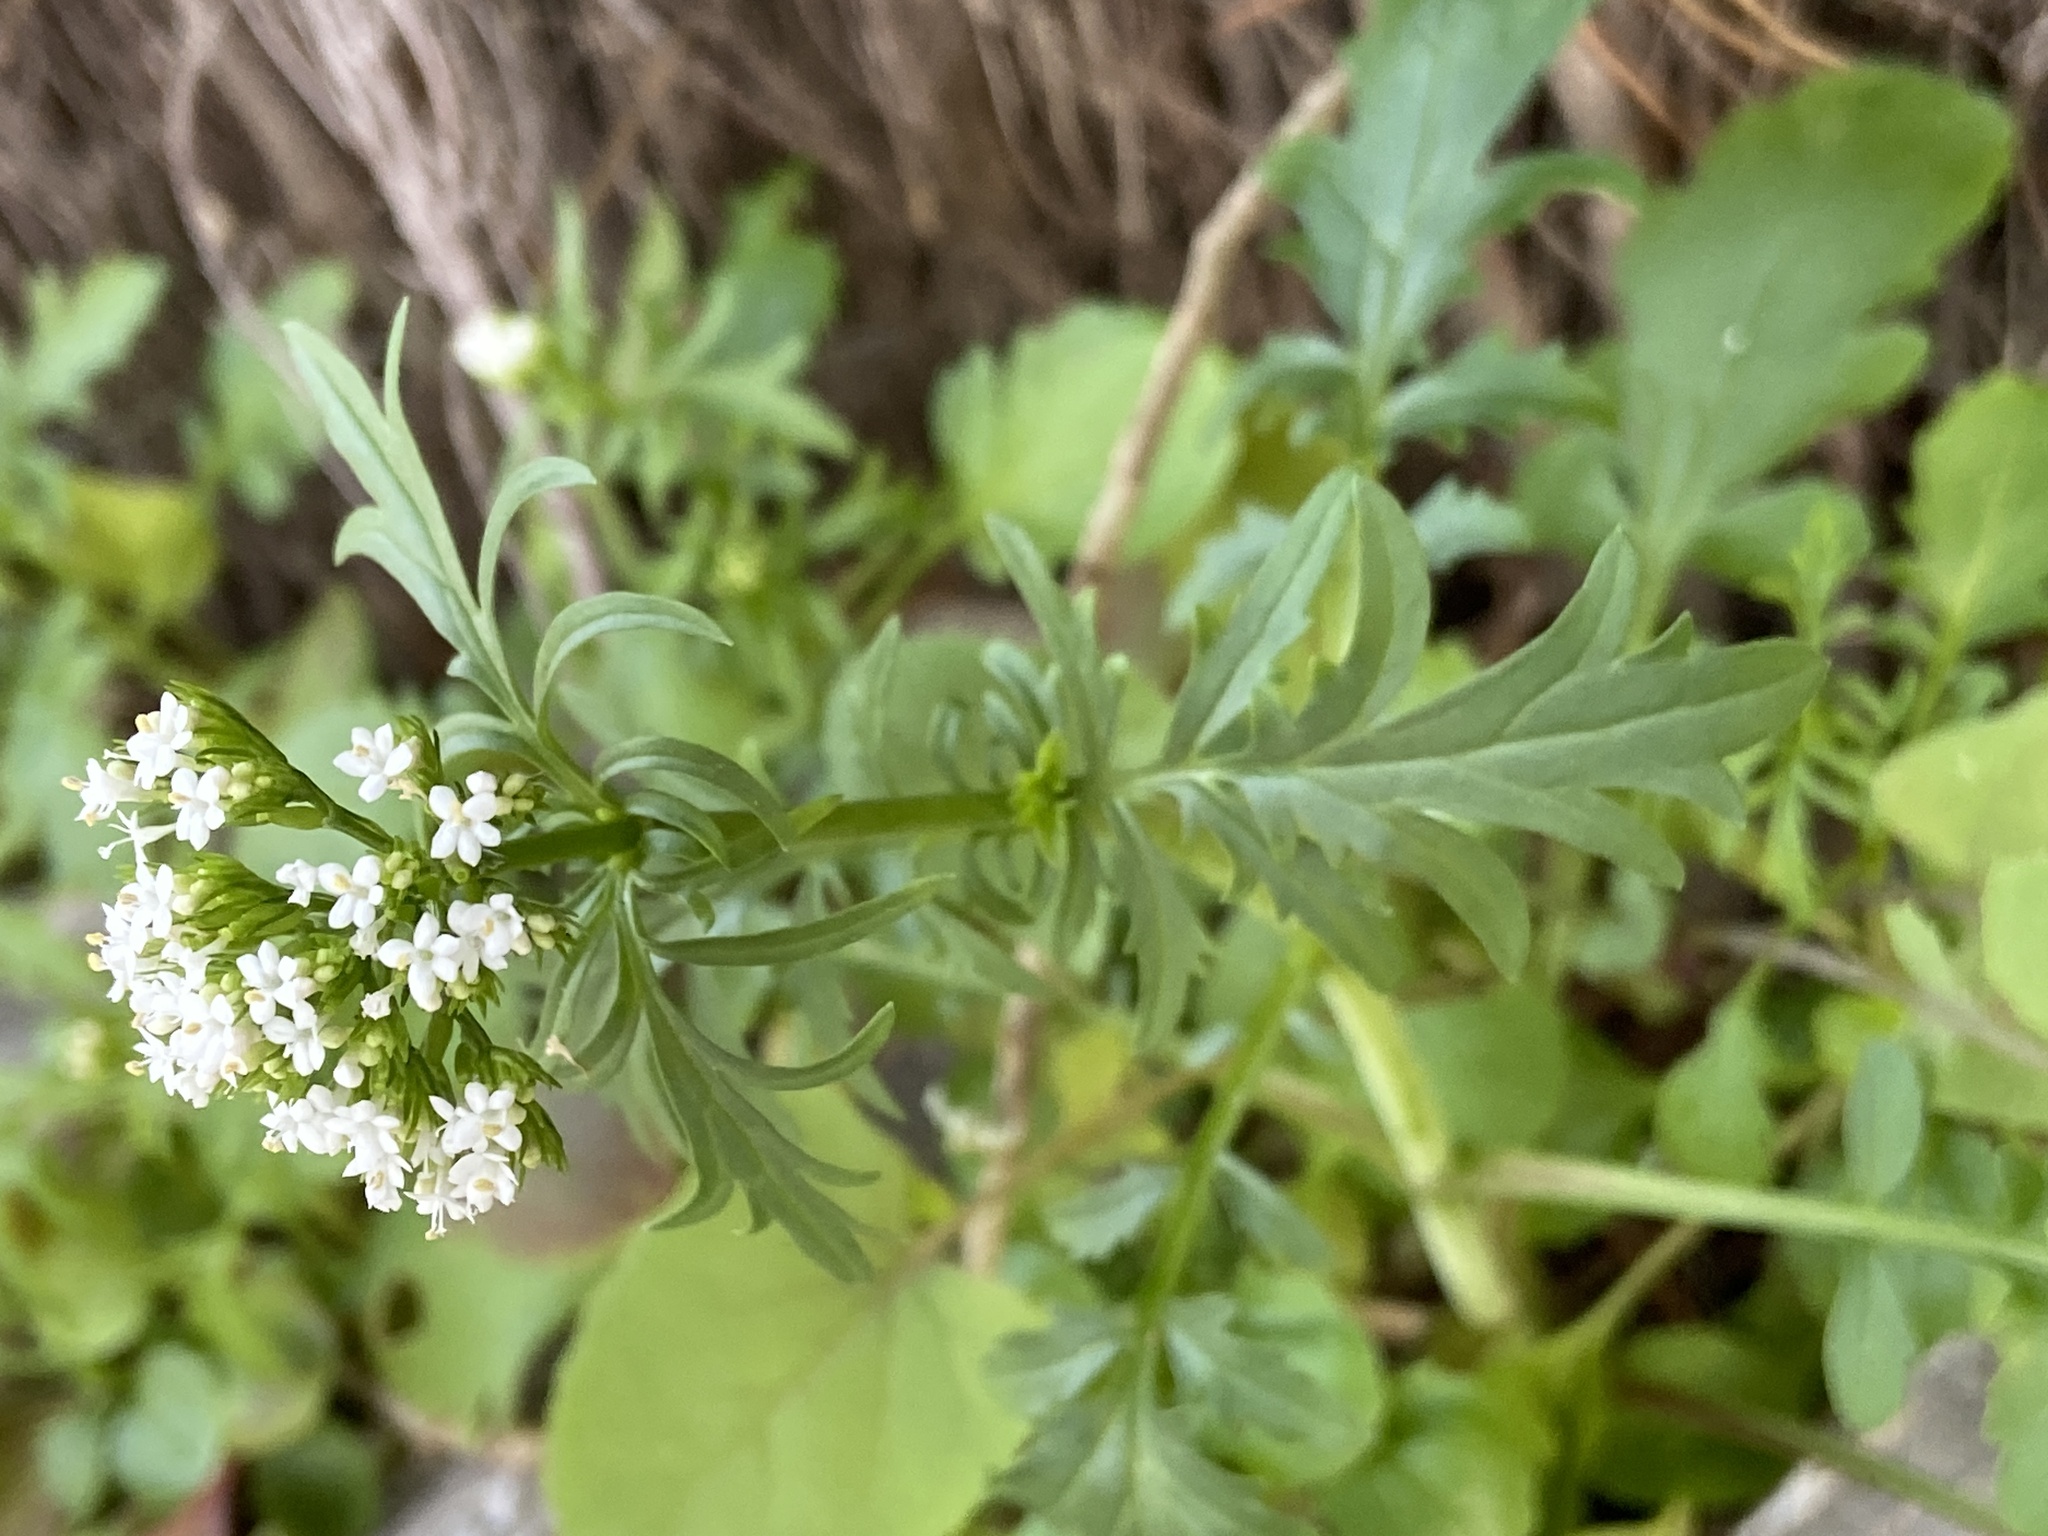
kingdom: Plantae
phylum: Tracheophyta
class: Magnoliopsida
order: Dipsacales
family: Caprifoliaceae
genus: Centranthus
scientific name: Centranthus calcitrapae
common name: Annual valerian
